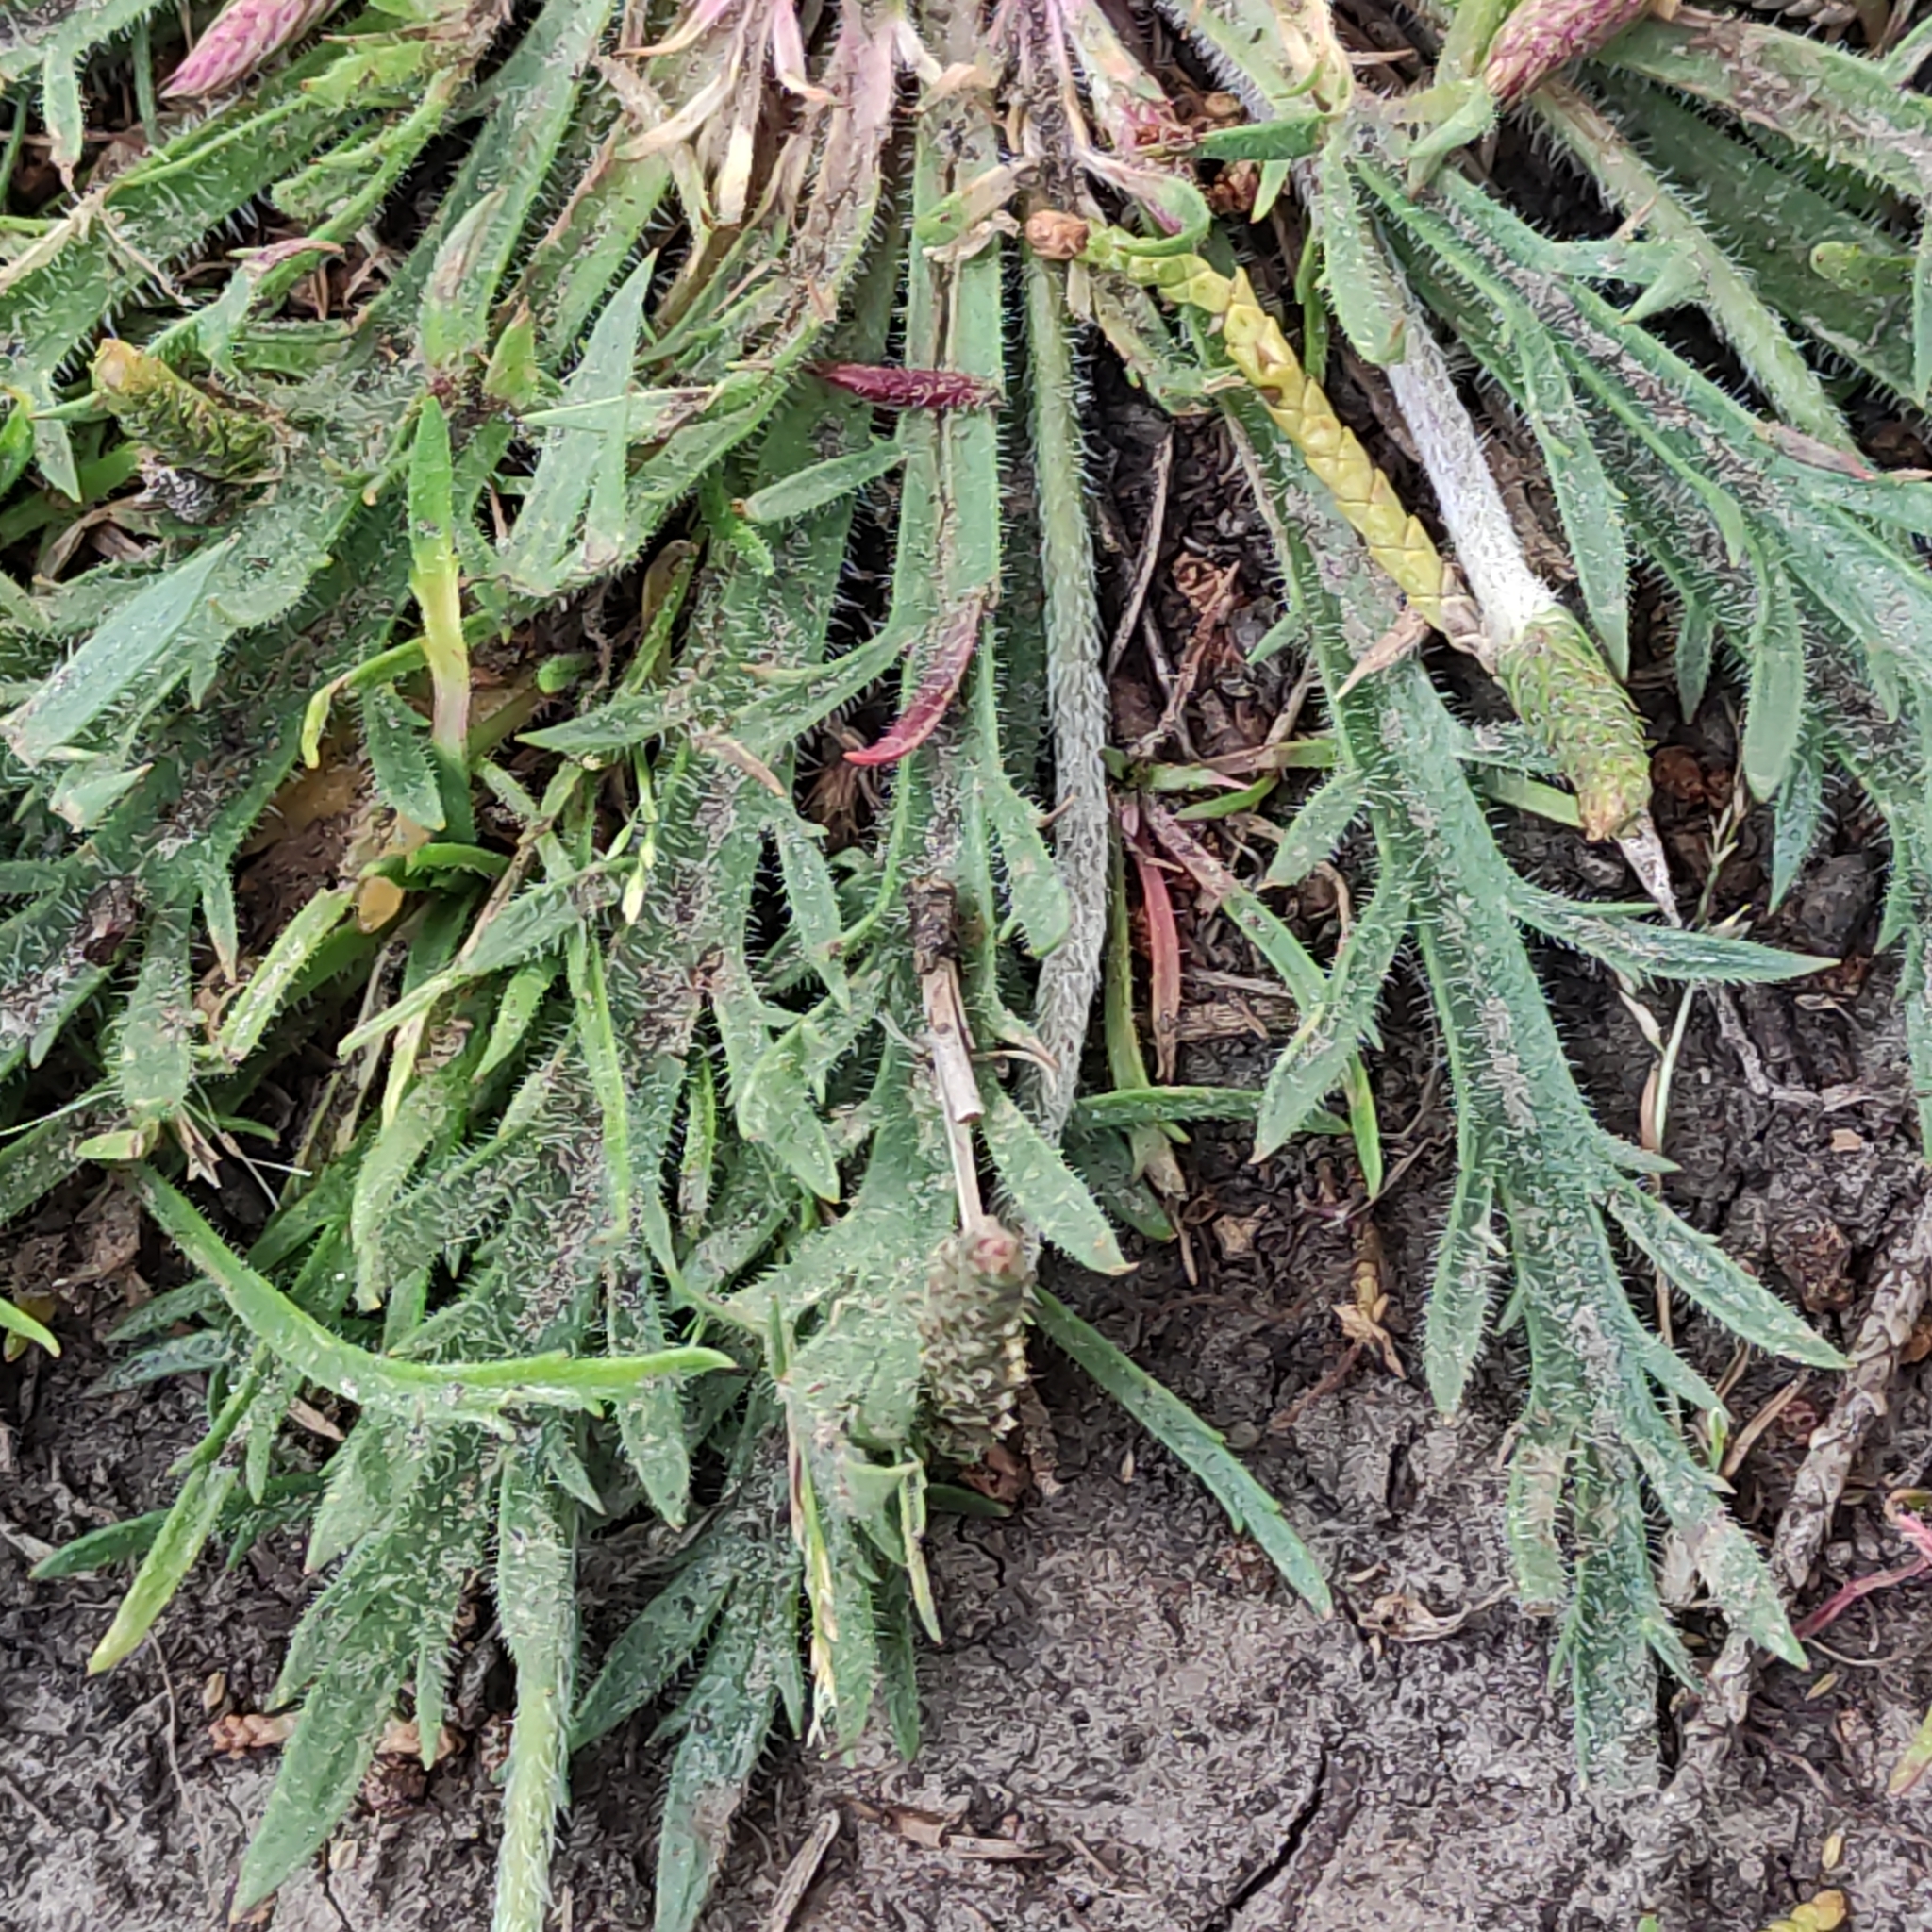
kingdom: Plantae
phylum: Tracheophyta
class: Magnoliopsida
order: Lamiales
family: Plantaginaceae
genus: Plantago
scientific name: Plantago coronopus
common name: Buck's-horn plantain
